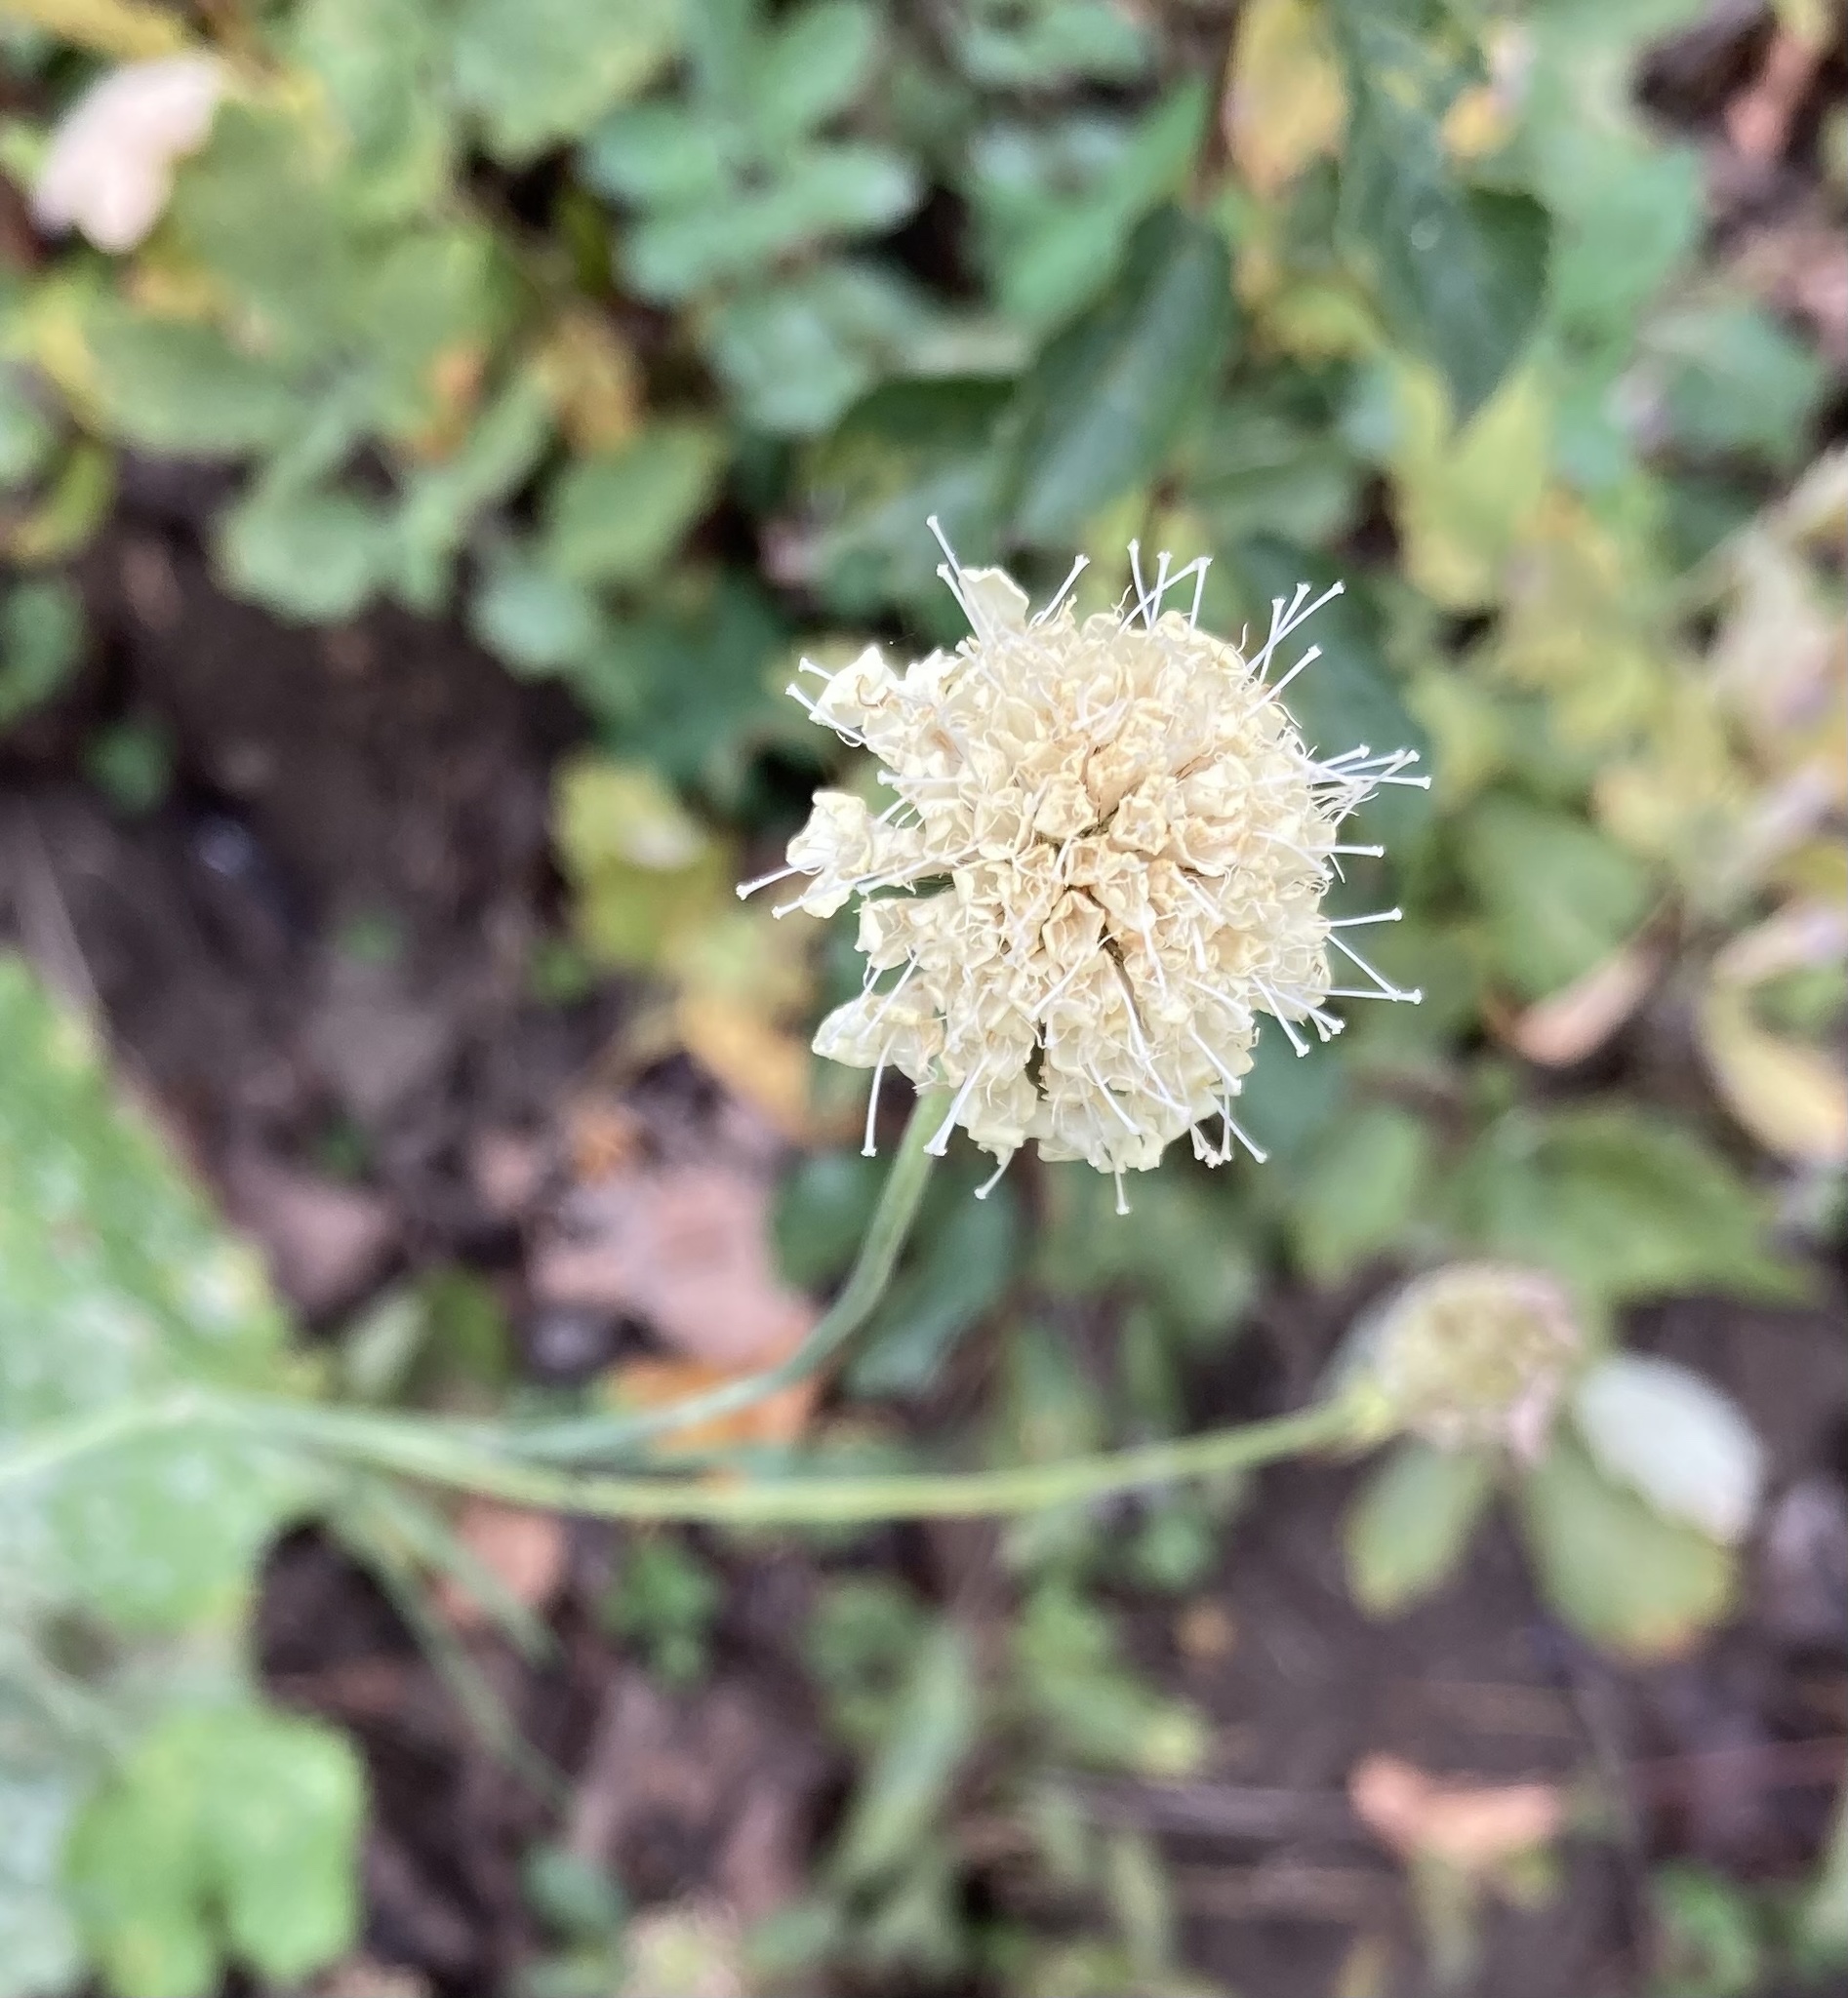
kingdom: Plantae
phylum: Tracheophyta
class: Magnoliopsida
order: Dipsacales
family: Caprifoliaceae
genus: Knautia
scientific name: Knautia arvensis
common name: Field scabiosa
